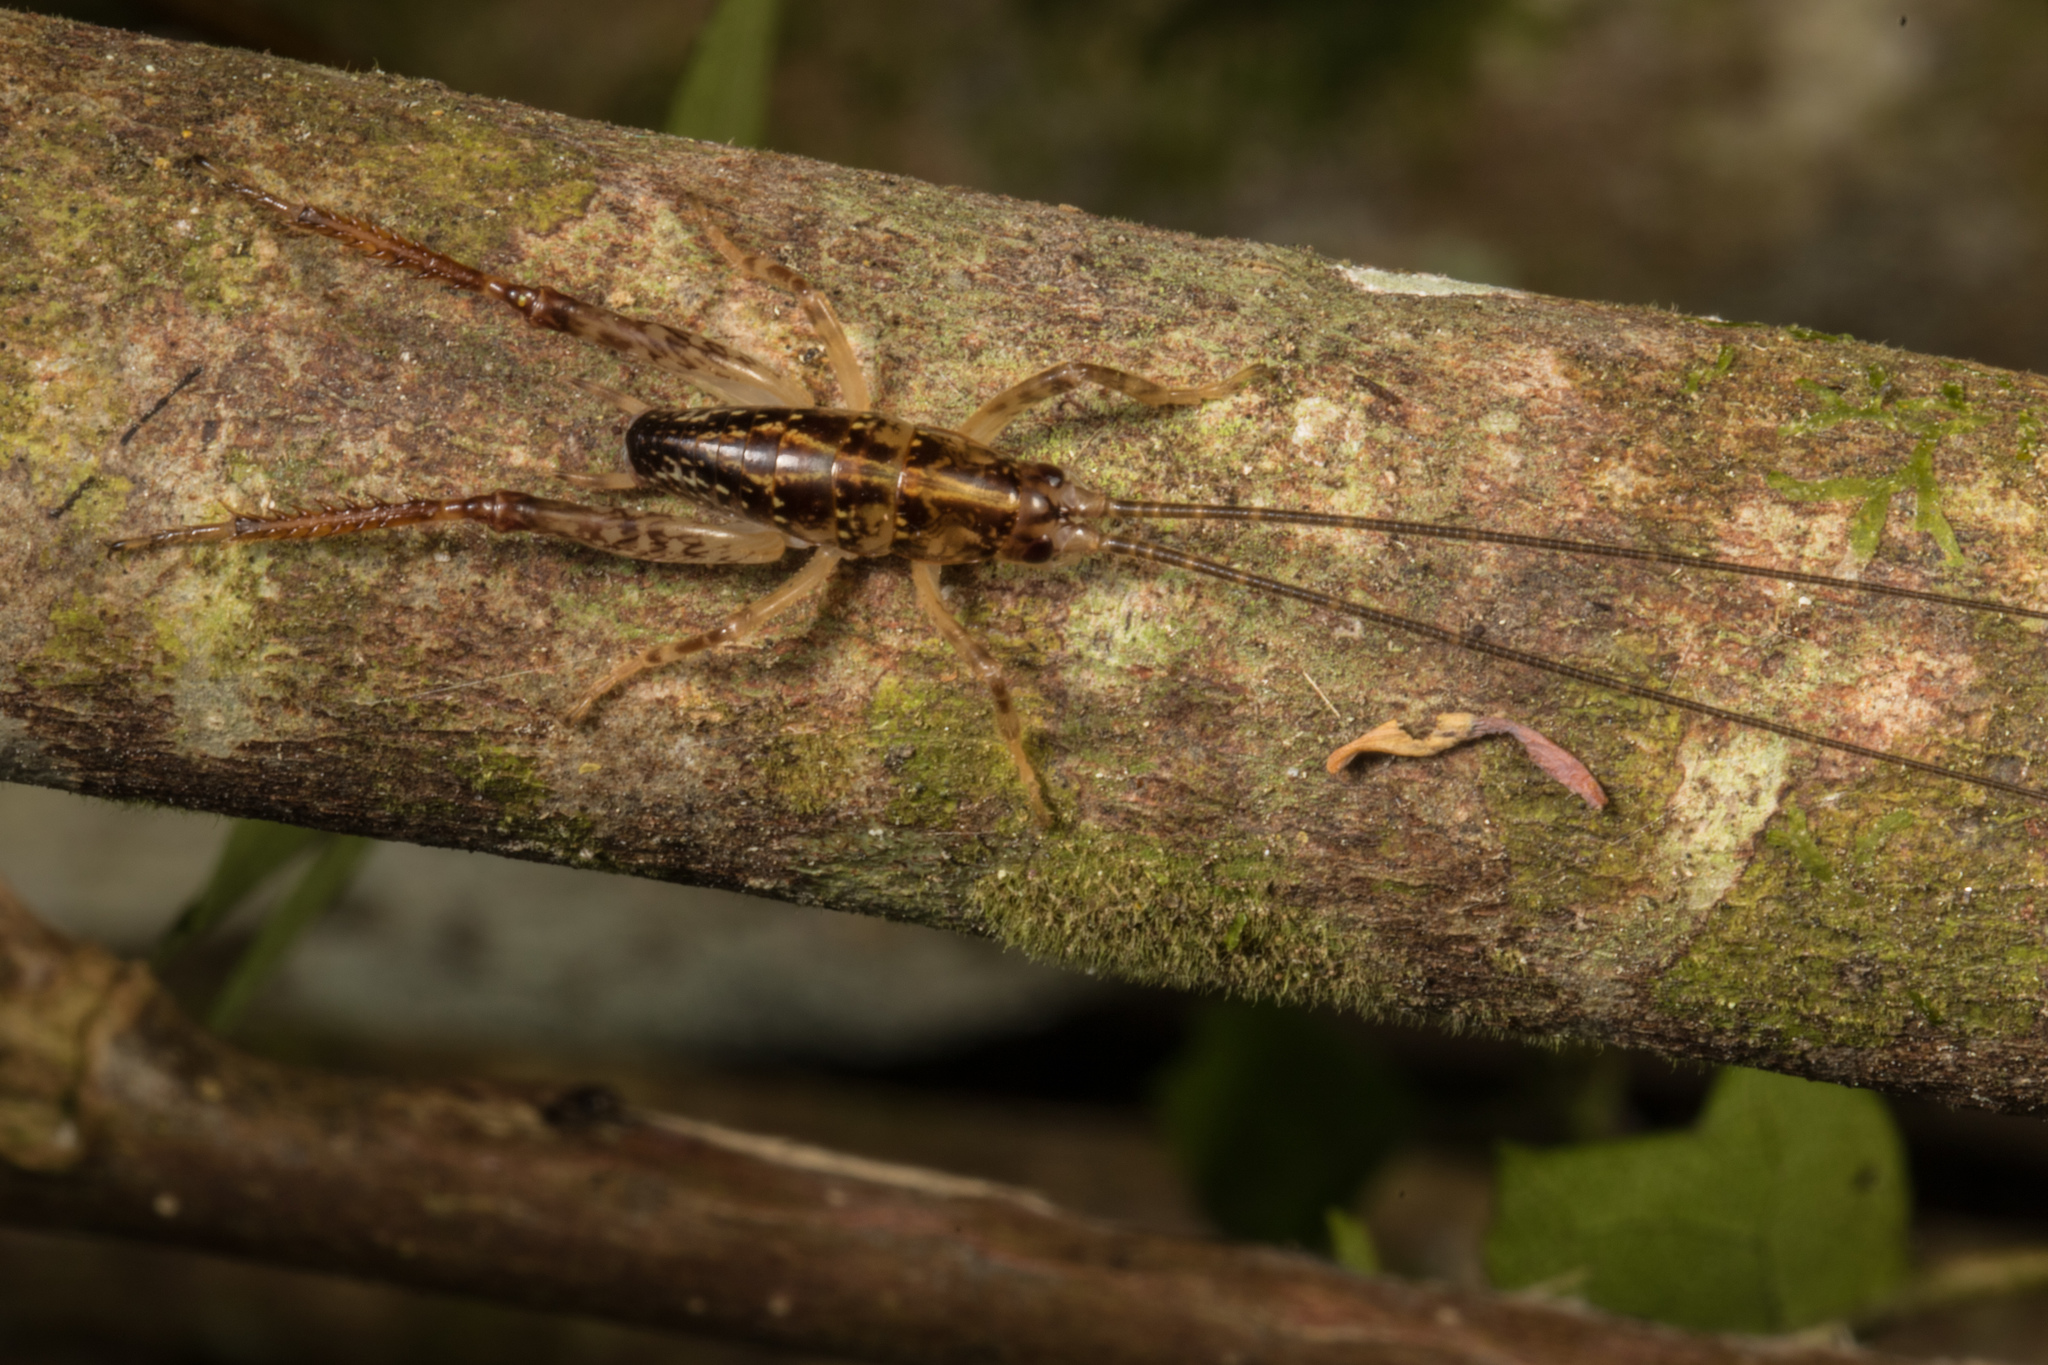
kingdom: Animalia
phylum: Arthropoda
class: Insecta
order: Orthoptera
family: Rhaphidophoridae
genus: Talitropsis
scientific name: Talitropsis sedilloti
